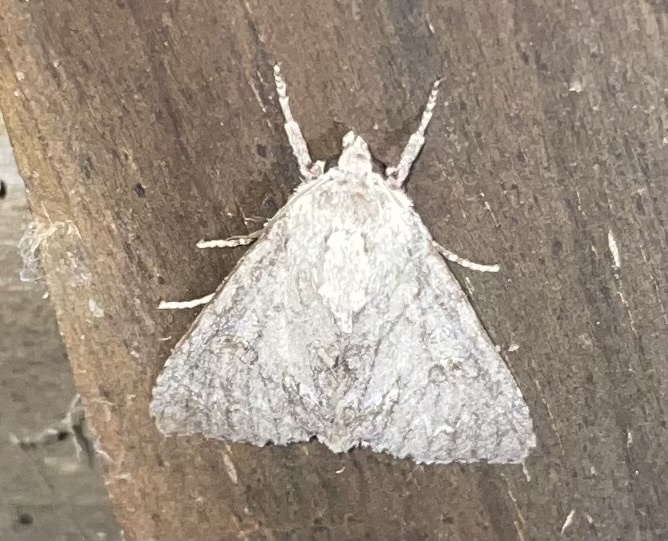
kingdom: Animalia
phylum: Arthropoda
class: Insecta
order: Lepidoptera
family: Noctuidae
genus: Acronicta
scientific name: Acronicta americana
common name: American dagger
